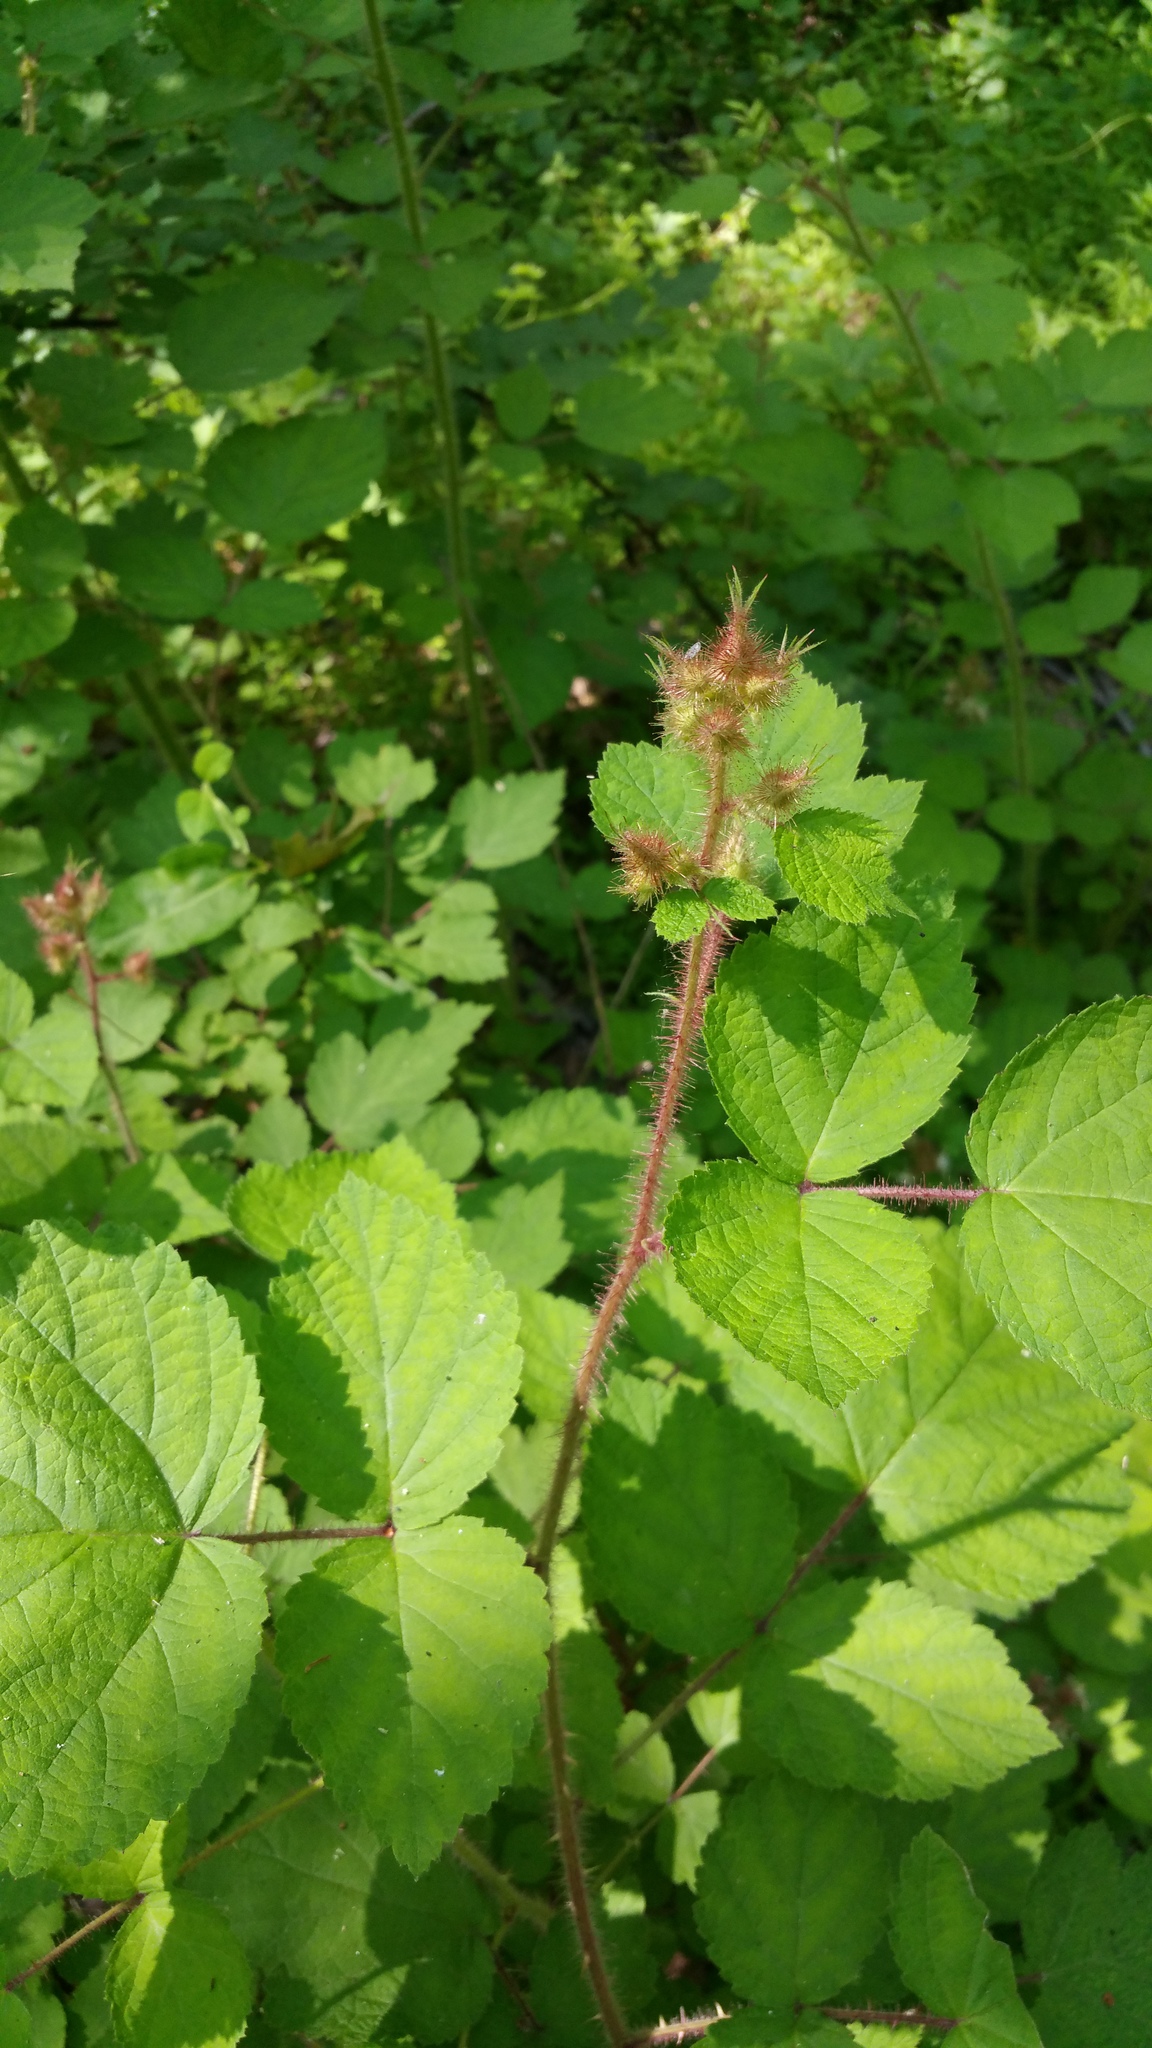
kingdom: Plantae
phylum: Tracheophyta
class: Magnoliopsida
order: Rosales
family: Rosaceae
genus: Rubus
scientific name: Rubus phoenicolasius
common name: Japanese wineberry
